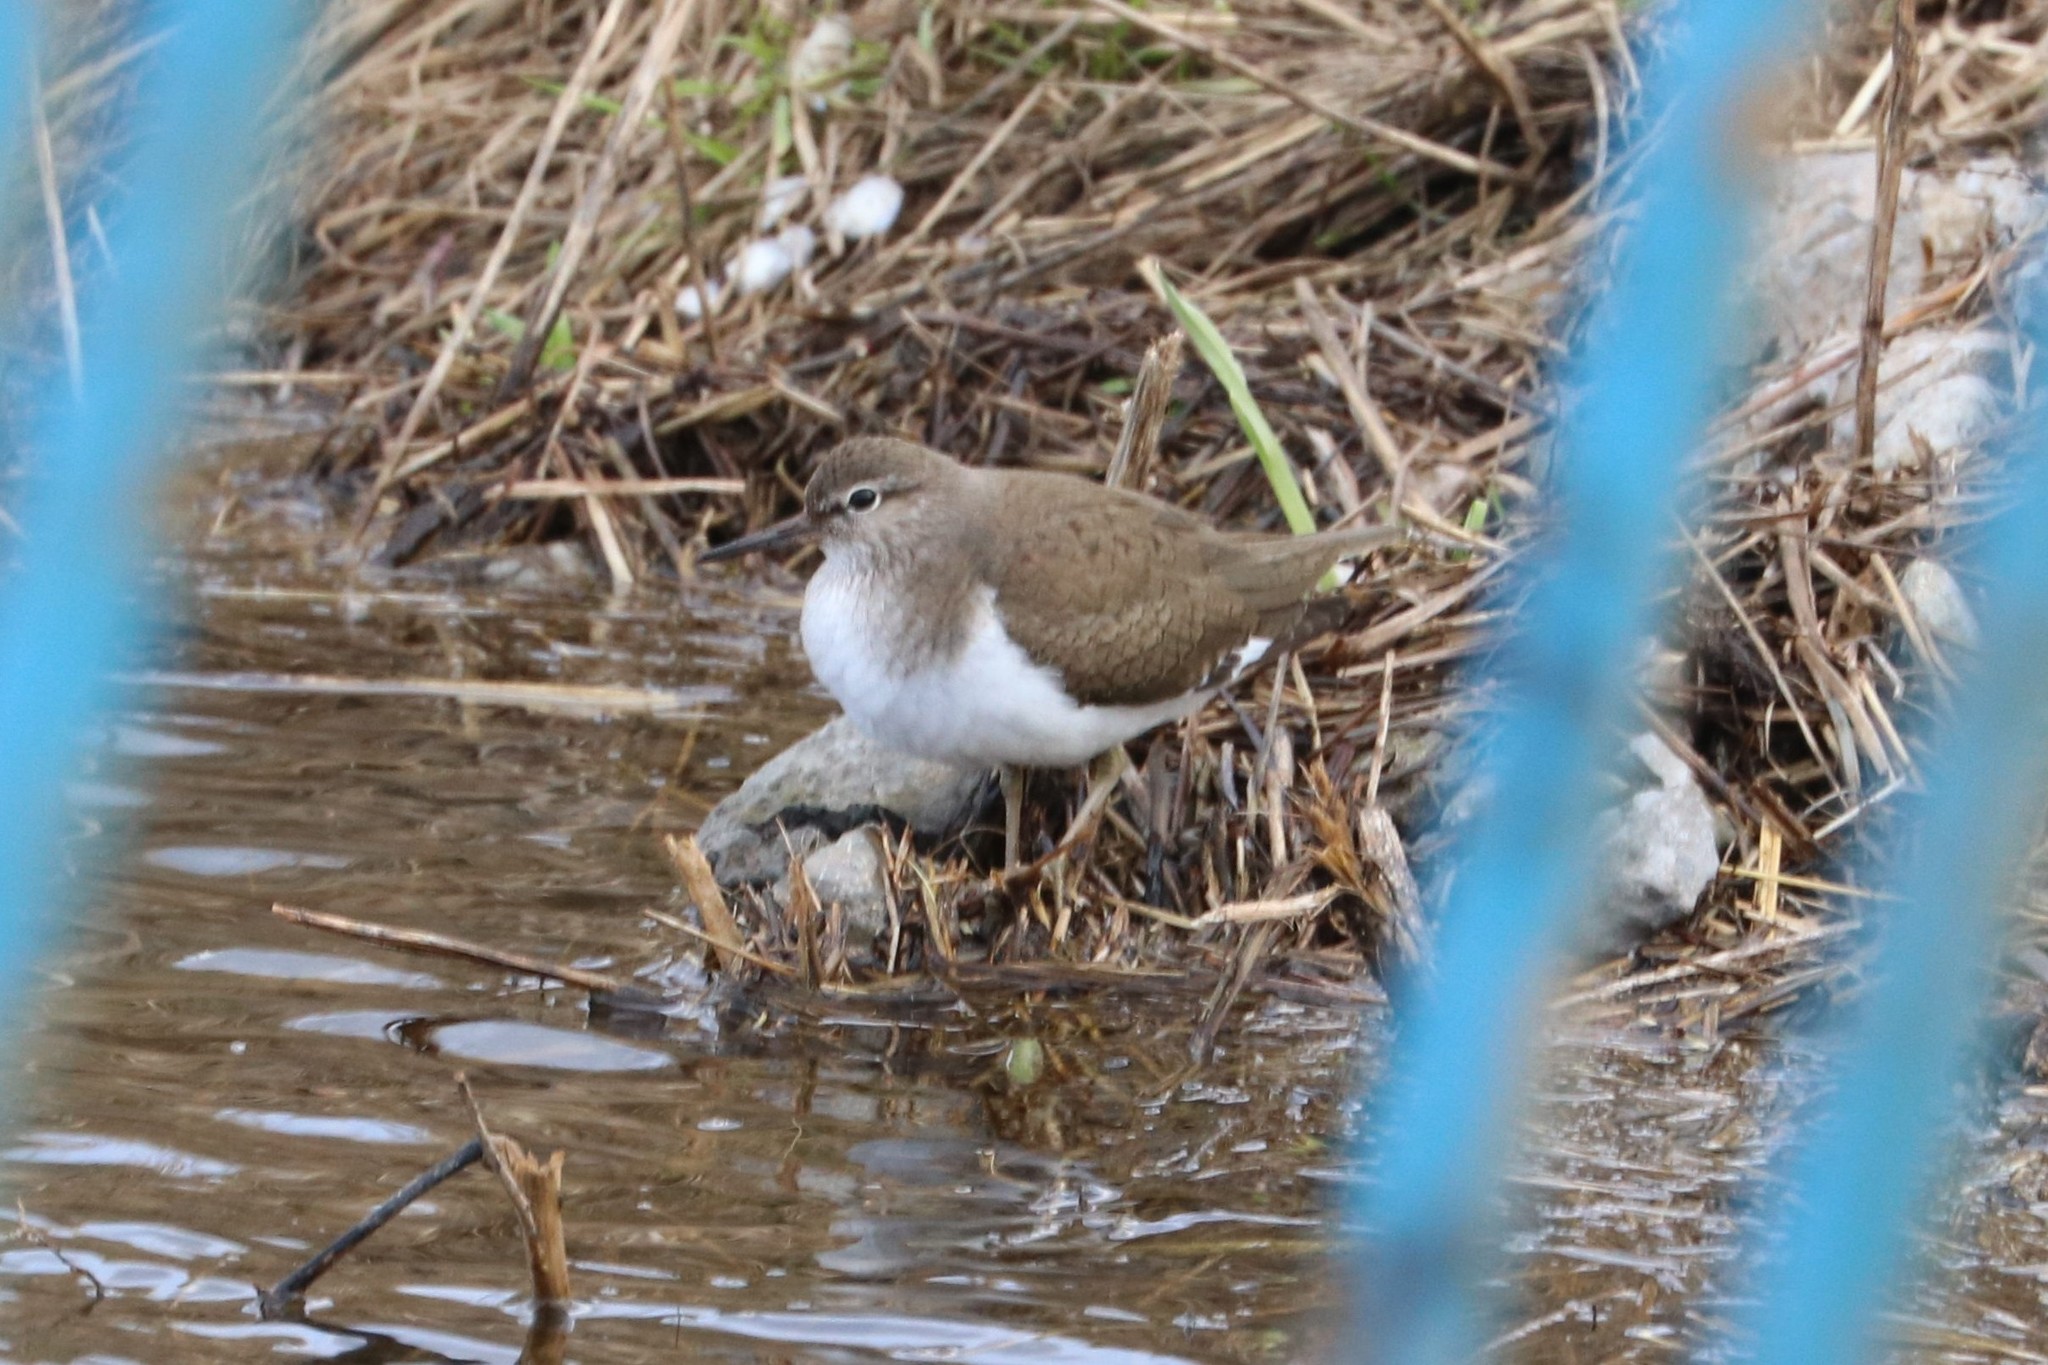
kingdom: Animalia
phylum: Chordata
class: Aves
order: Charadriiformes
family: Scolopacidae
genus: Actitis
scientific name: Actitis hypoleucos
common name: Common sandpiper
